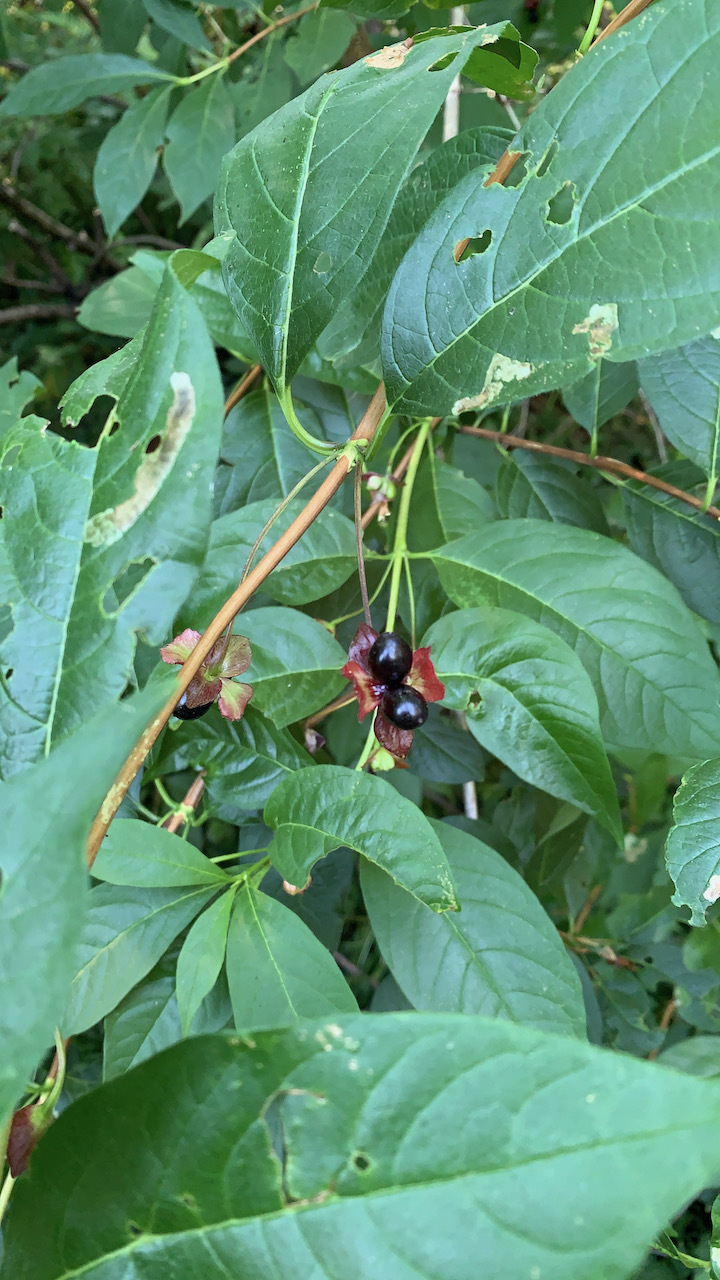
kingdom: Plantae
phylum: Tracheophyta
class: Magnoliopsida
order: Dipsacales
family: Caprifoliaceae
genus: Lonicera
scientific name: Lonicera involucrata
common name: Californian honeysuckle
